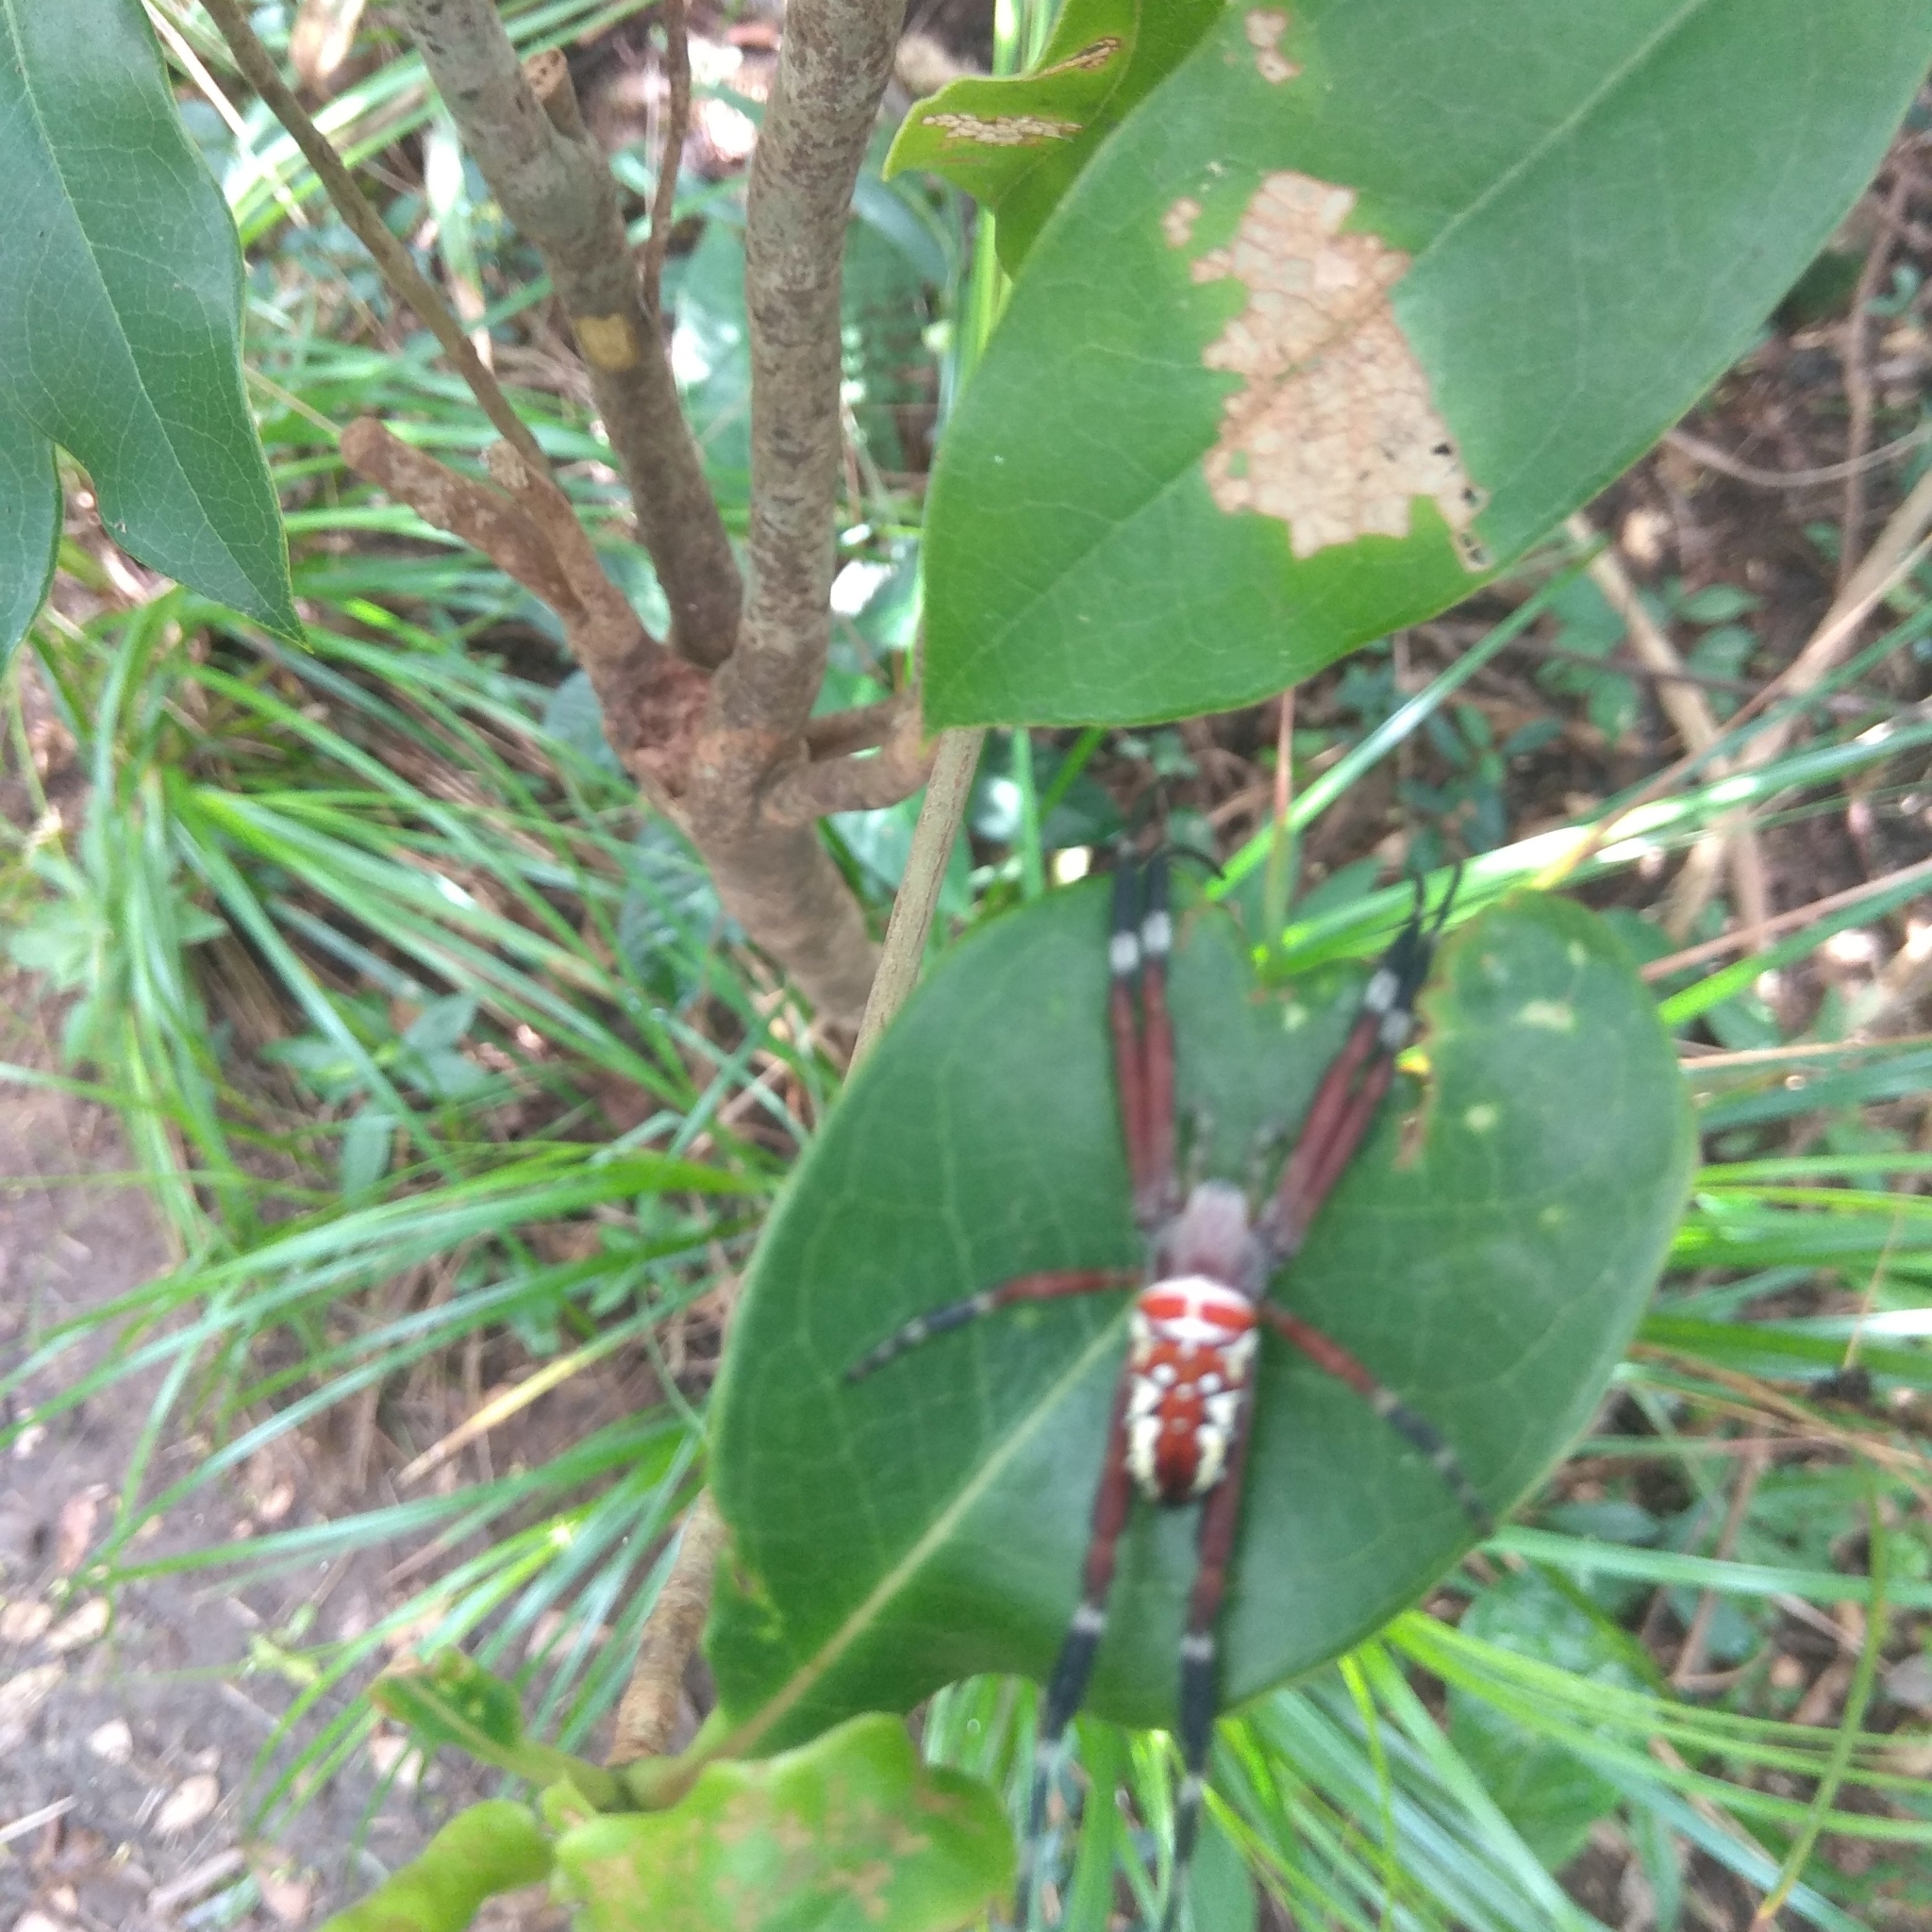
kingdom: Animalia
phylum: Arthropoda
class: Arachnida
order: Araneae
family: Araneidae
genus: Argiope
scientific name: Argiope ocula
